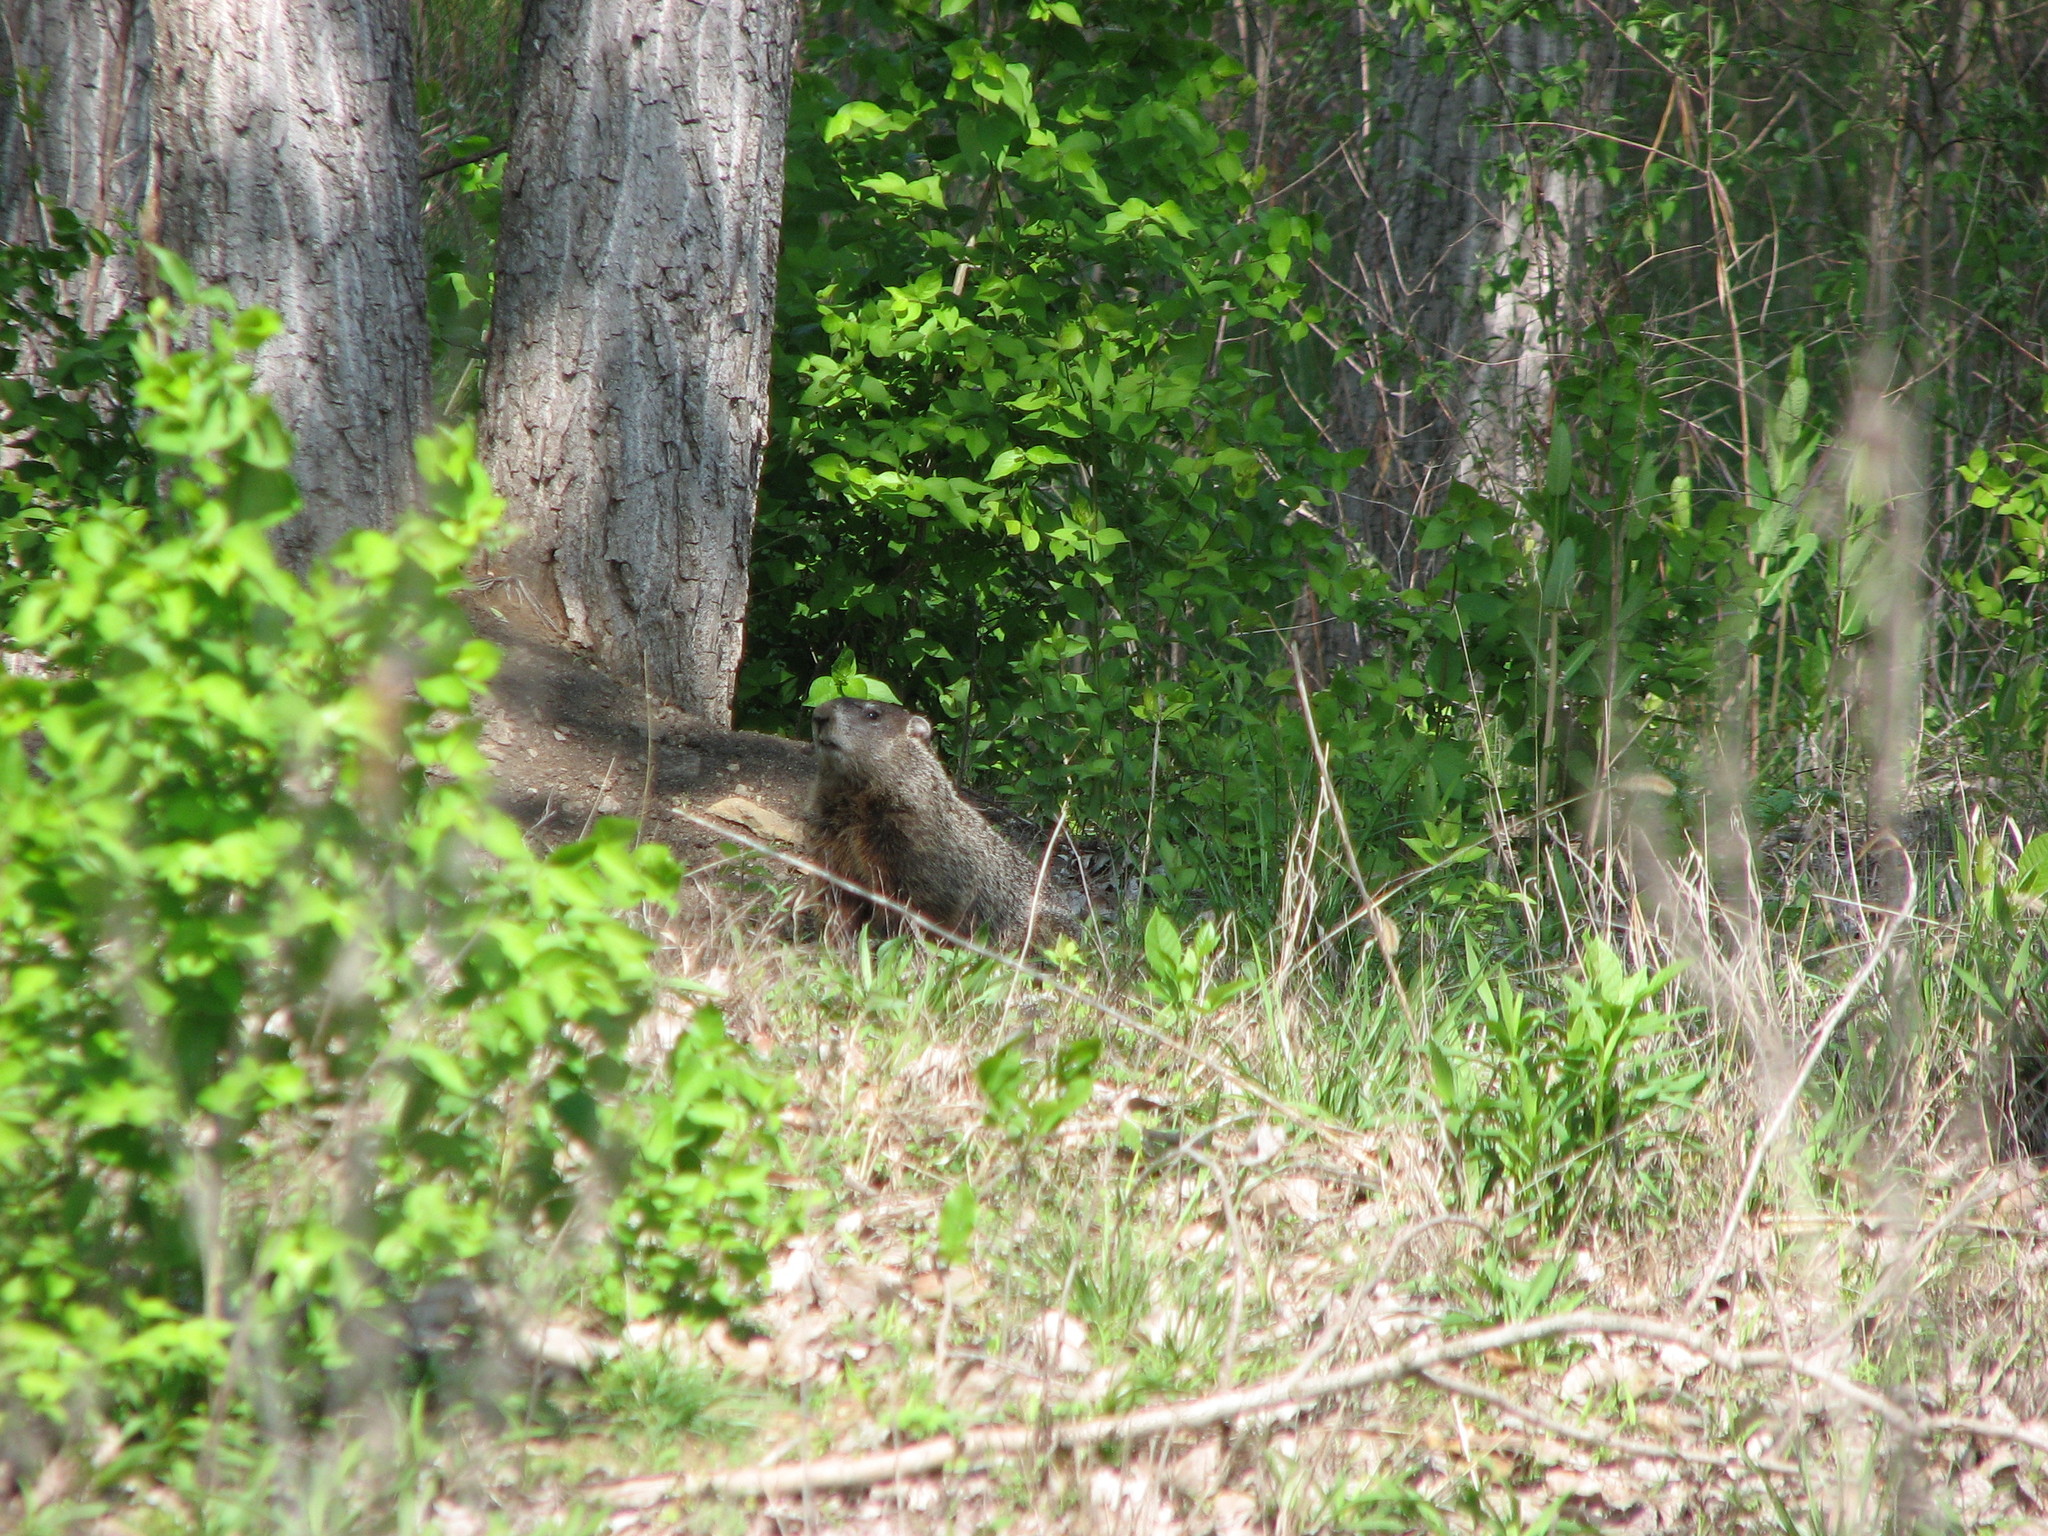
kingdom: Animalia
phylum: Chordata
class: Mammalia
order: Rodentia
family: Sciuridae
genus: Marmota
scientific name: Marmota monax
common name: Groundhog
